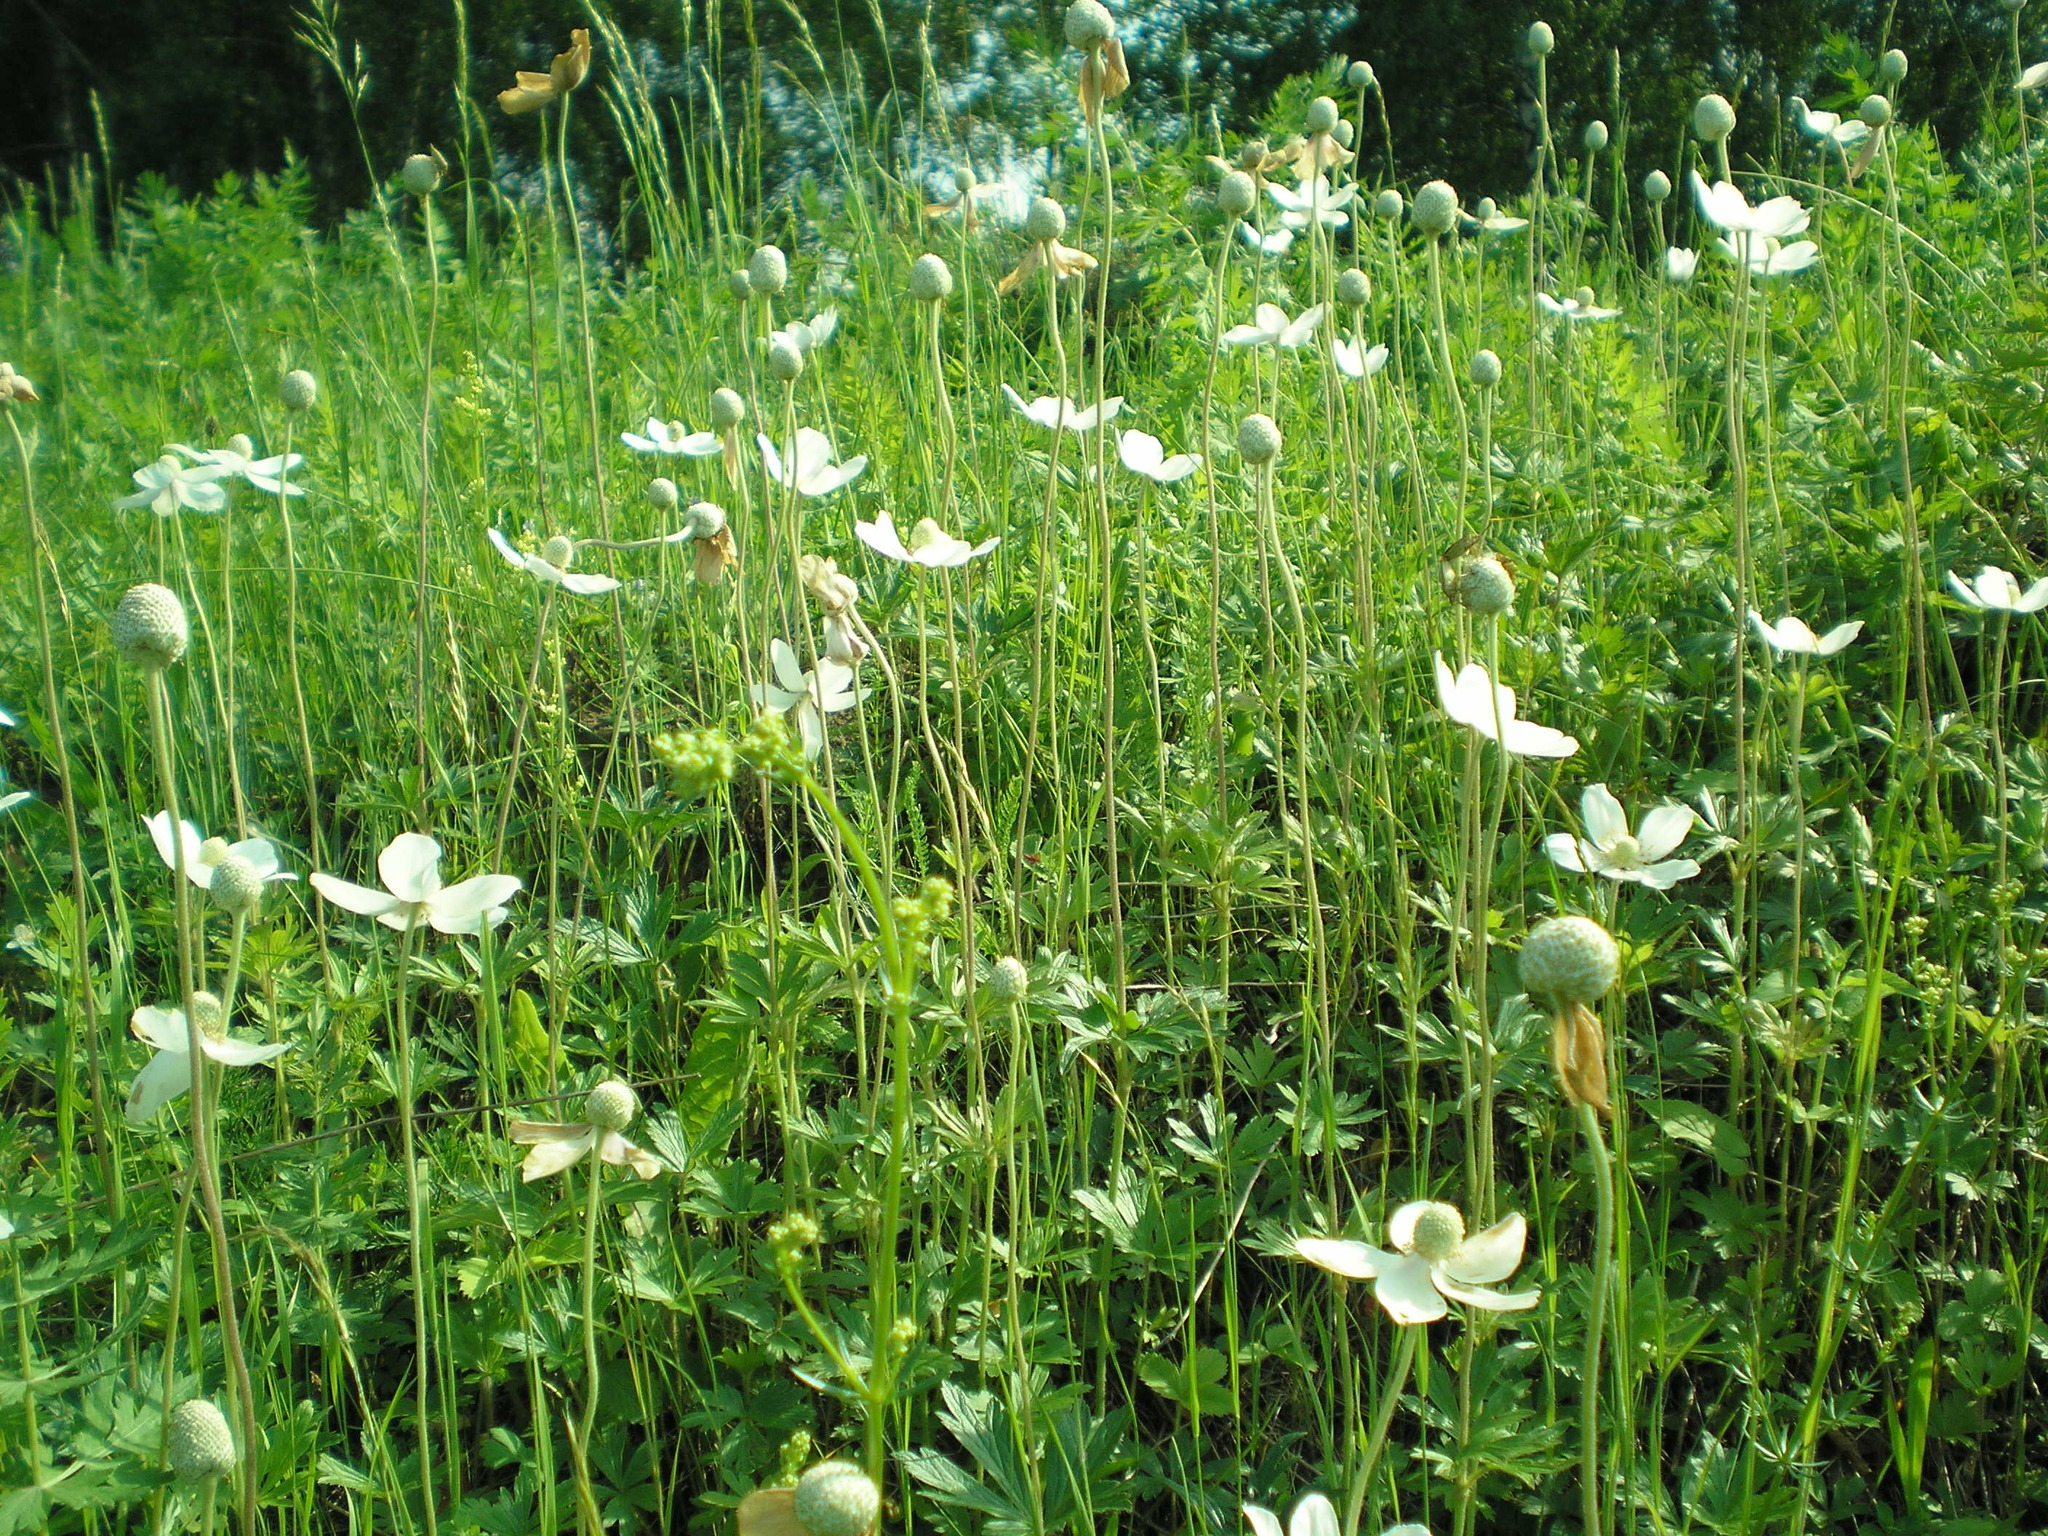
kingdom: Plantae
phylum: Tracheophyta
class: Magnoliopsida
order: Ranunculales
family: Ranunculaceae
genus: Anemone
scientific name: Anemone sylvestris
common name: Snowdrop anemone
